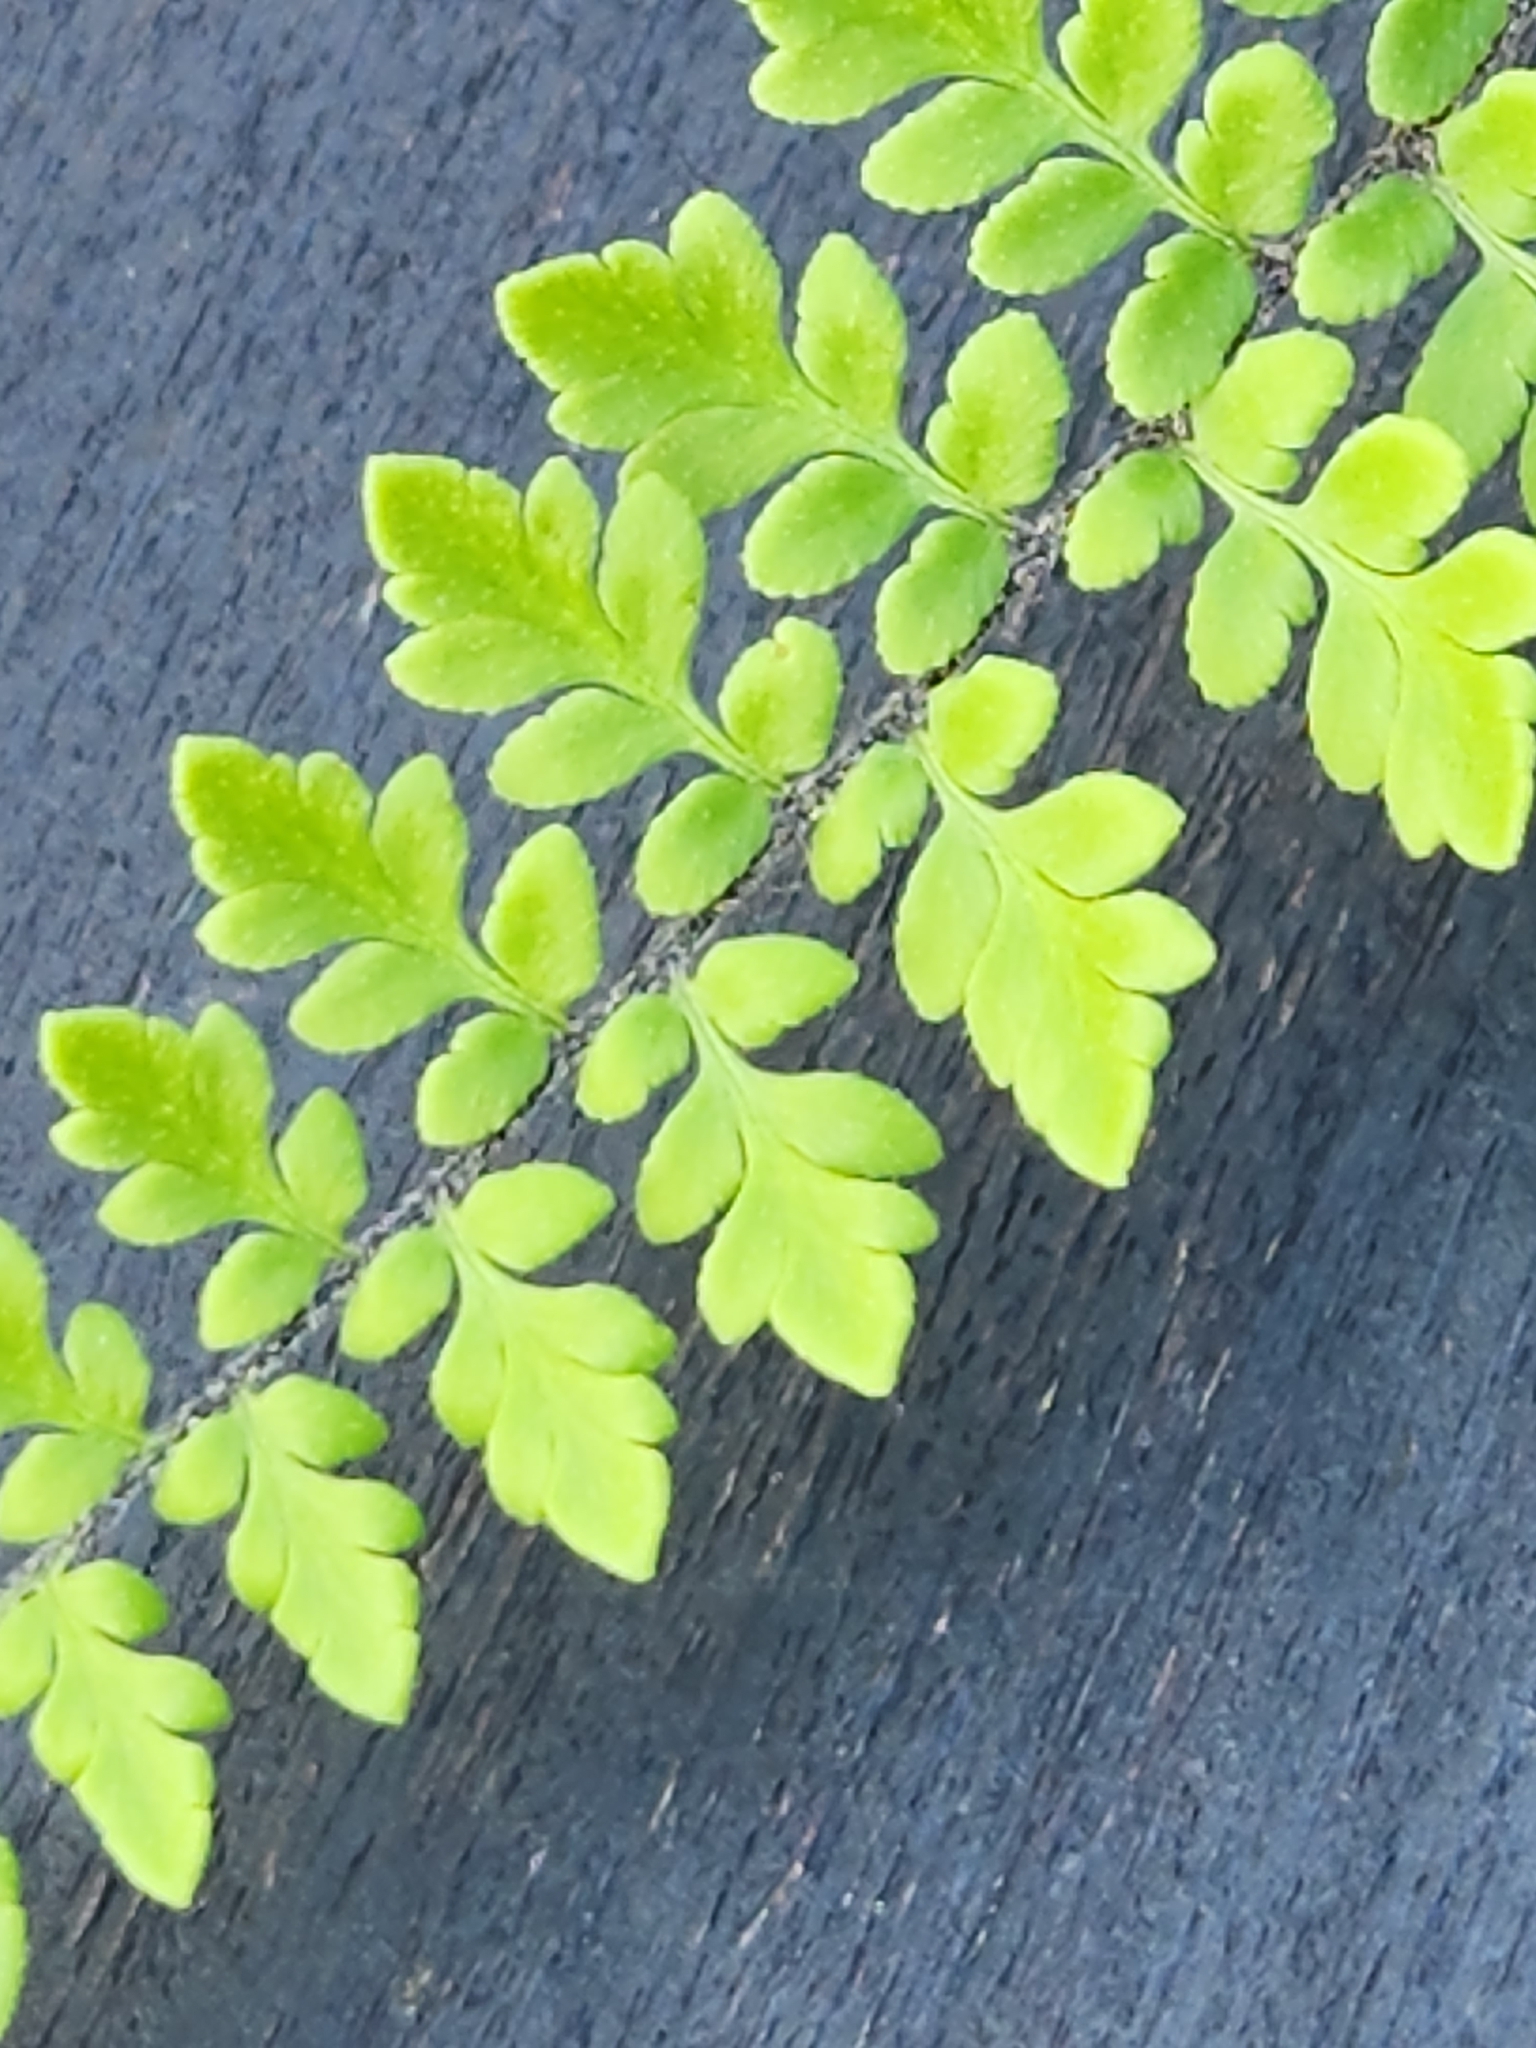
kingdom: Plantae
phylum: Tracheophyta
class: Polypodiopsida
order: Polypodiales
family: Pteridaceae
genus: Myriopteris
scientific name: Myriopteris alabamensis
